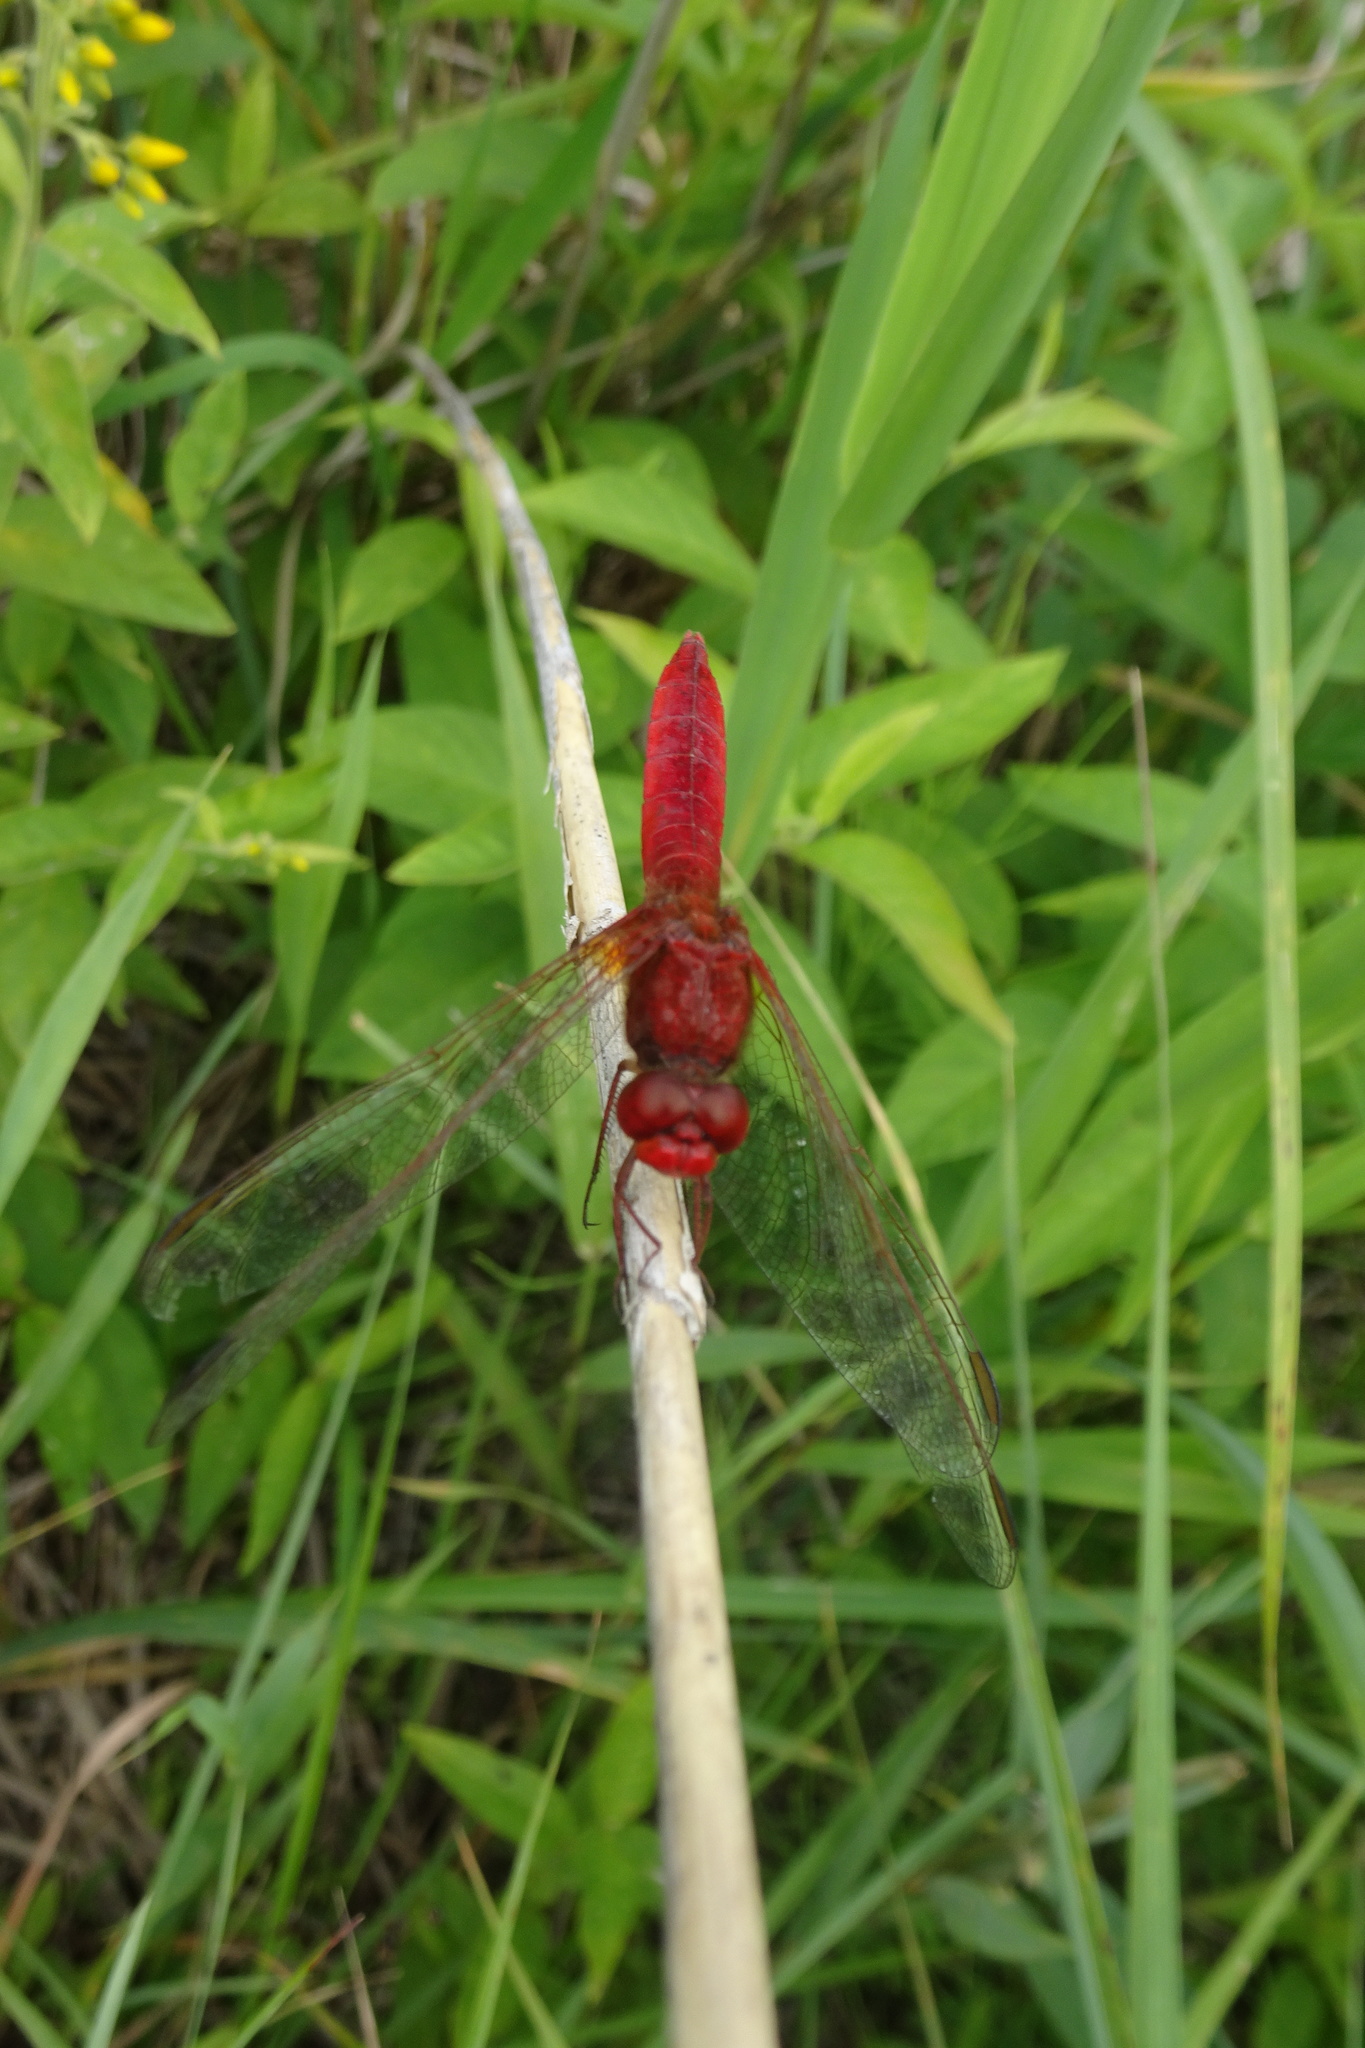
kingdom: Animalia
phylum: Arthropoda
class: Insecta
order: Odonata
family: Libellulidae
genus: Crocothemis
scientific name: Crocothemis erythraea
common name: Scarlet dragonfly
